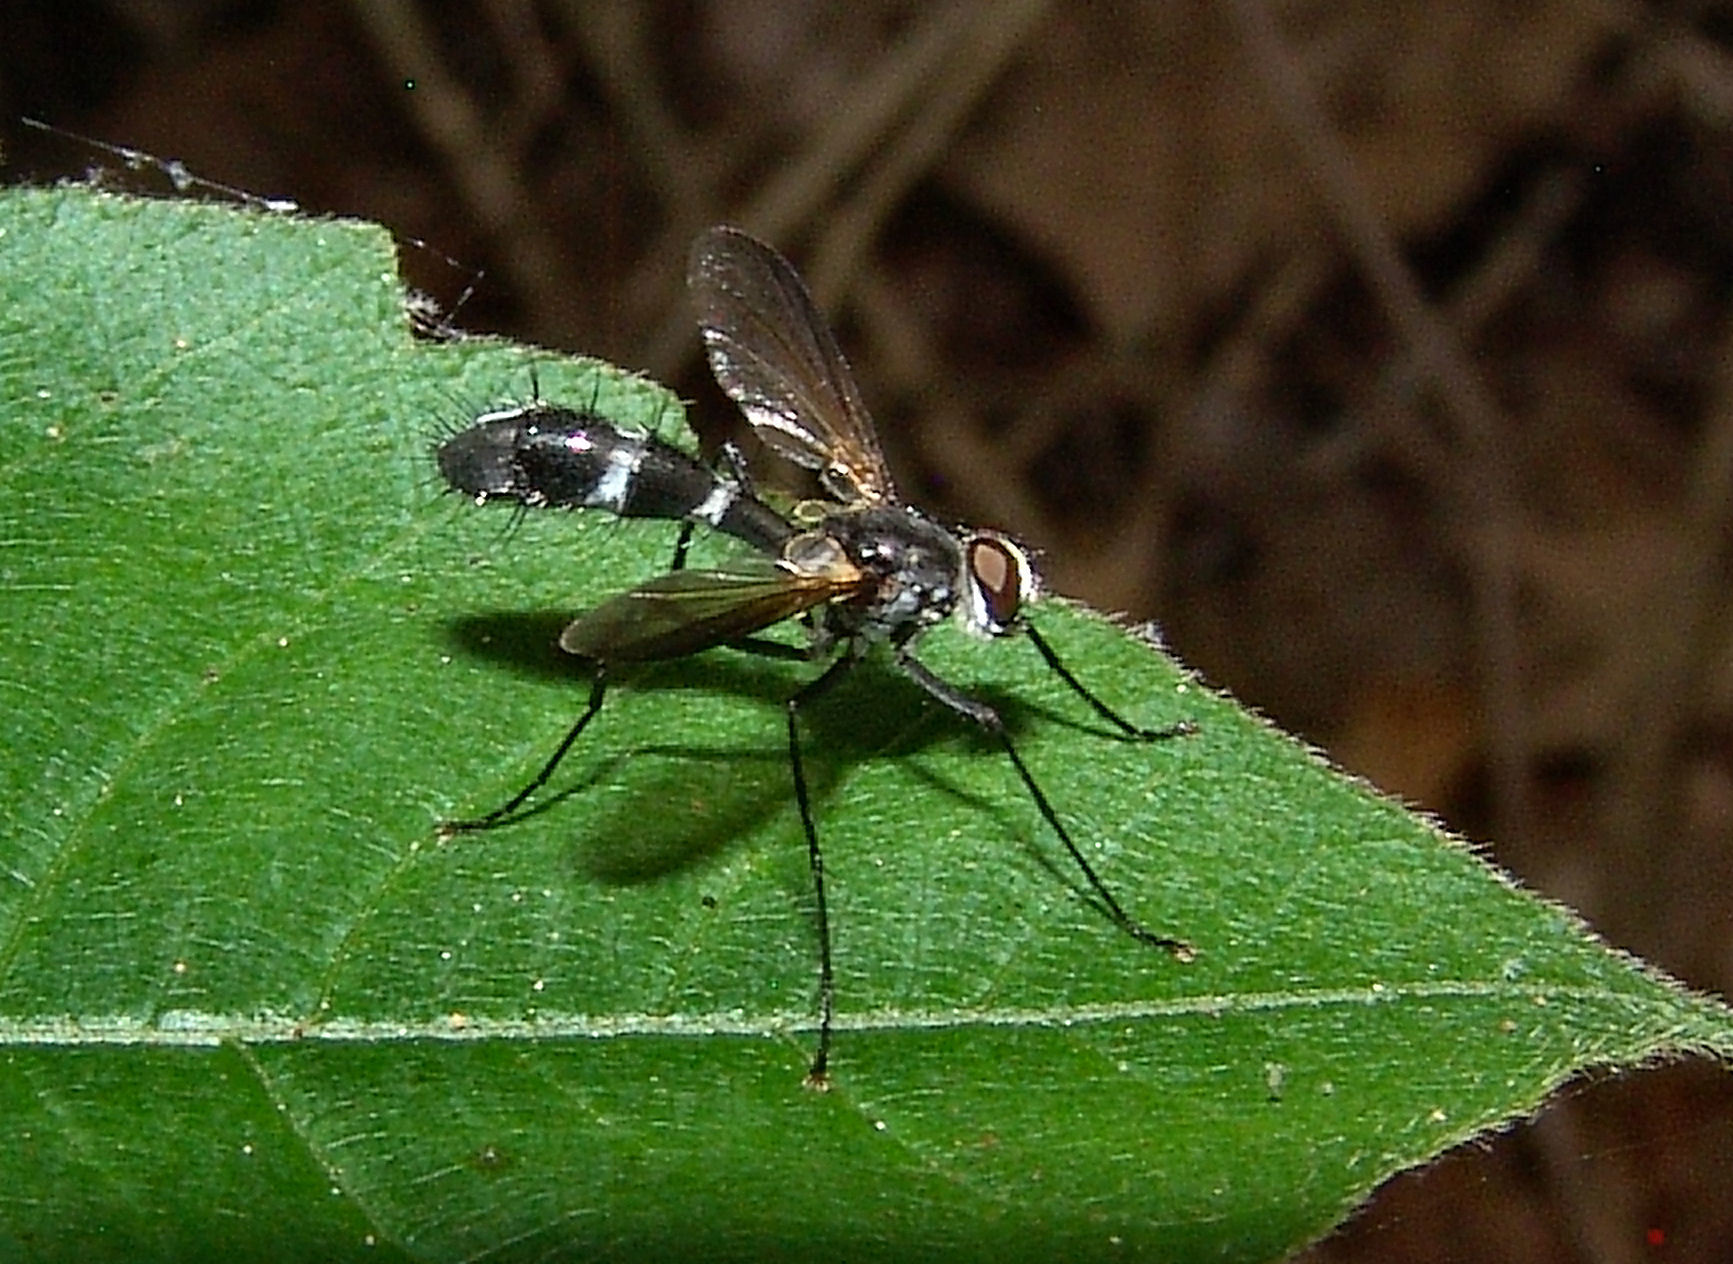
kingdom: Animalia
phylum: Arthropoda
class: Insecta
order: Diptera
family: Tachinidae
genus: Cordyligaster
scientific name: Cordyligaster septentrionalis
